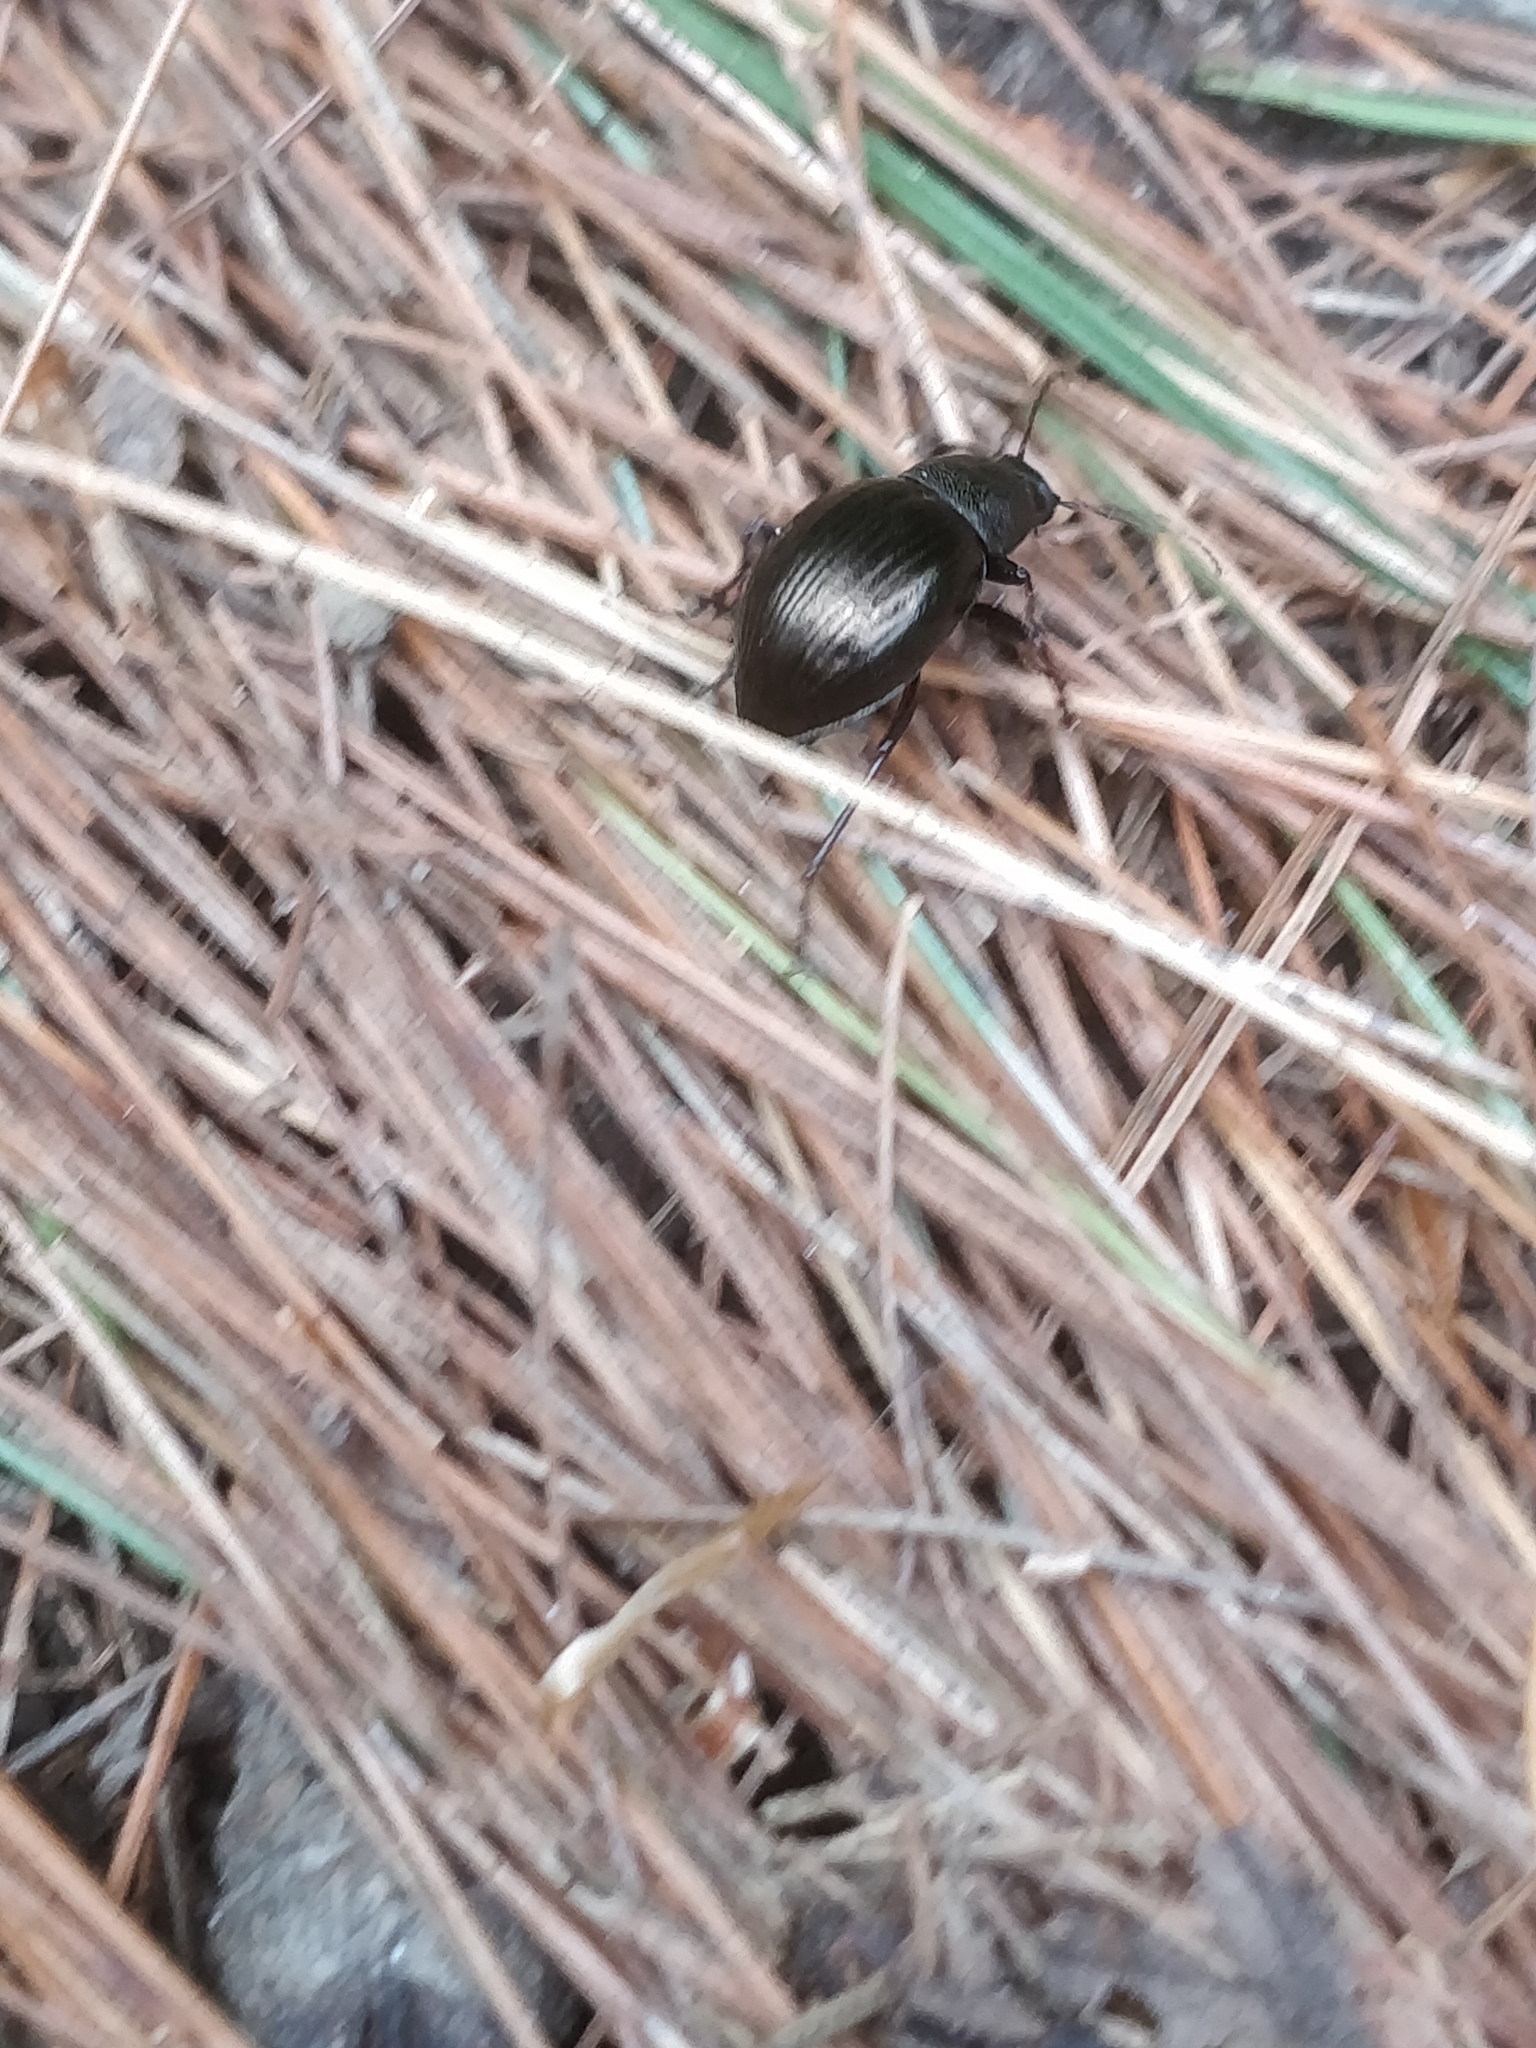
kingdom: Animalia
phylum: Arthropoda
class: Insecta
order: Coleoptera
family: Tenebrionidae
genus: Meracantha
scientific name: Meracantha contracta
